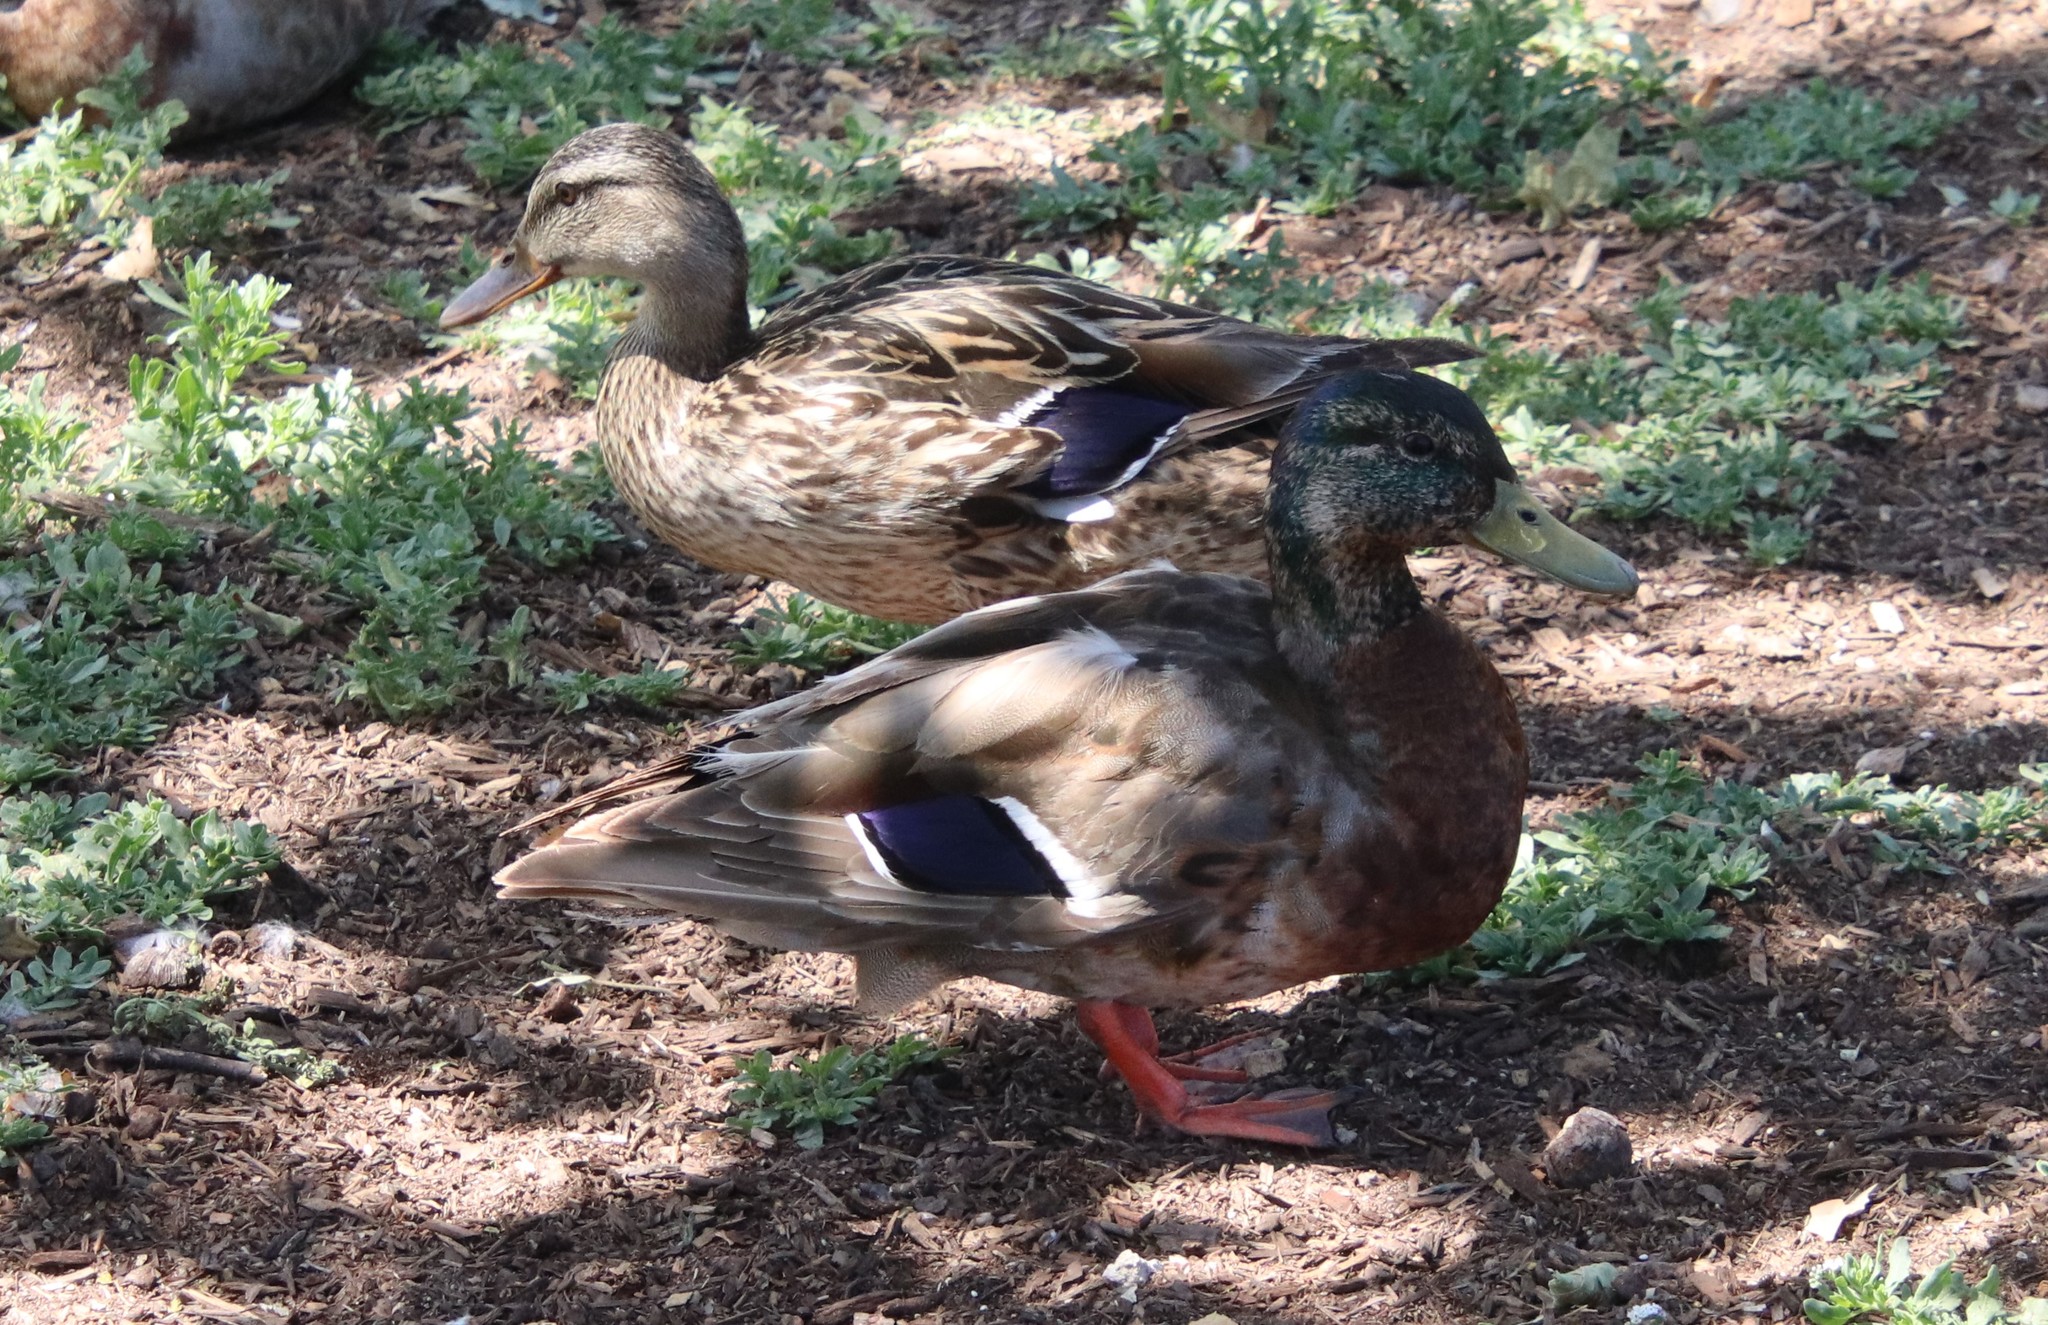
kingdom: Animalia
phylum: Chordata
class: Aves
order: Anseriformes
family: Anatidae
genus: Anas
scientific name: Anas platyrhynchos
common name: Mallard
